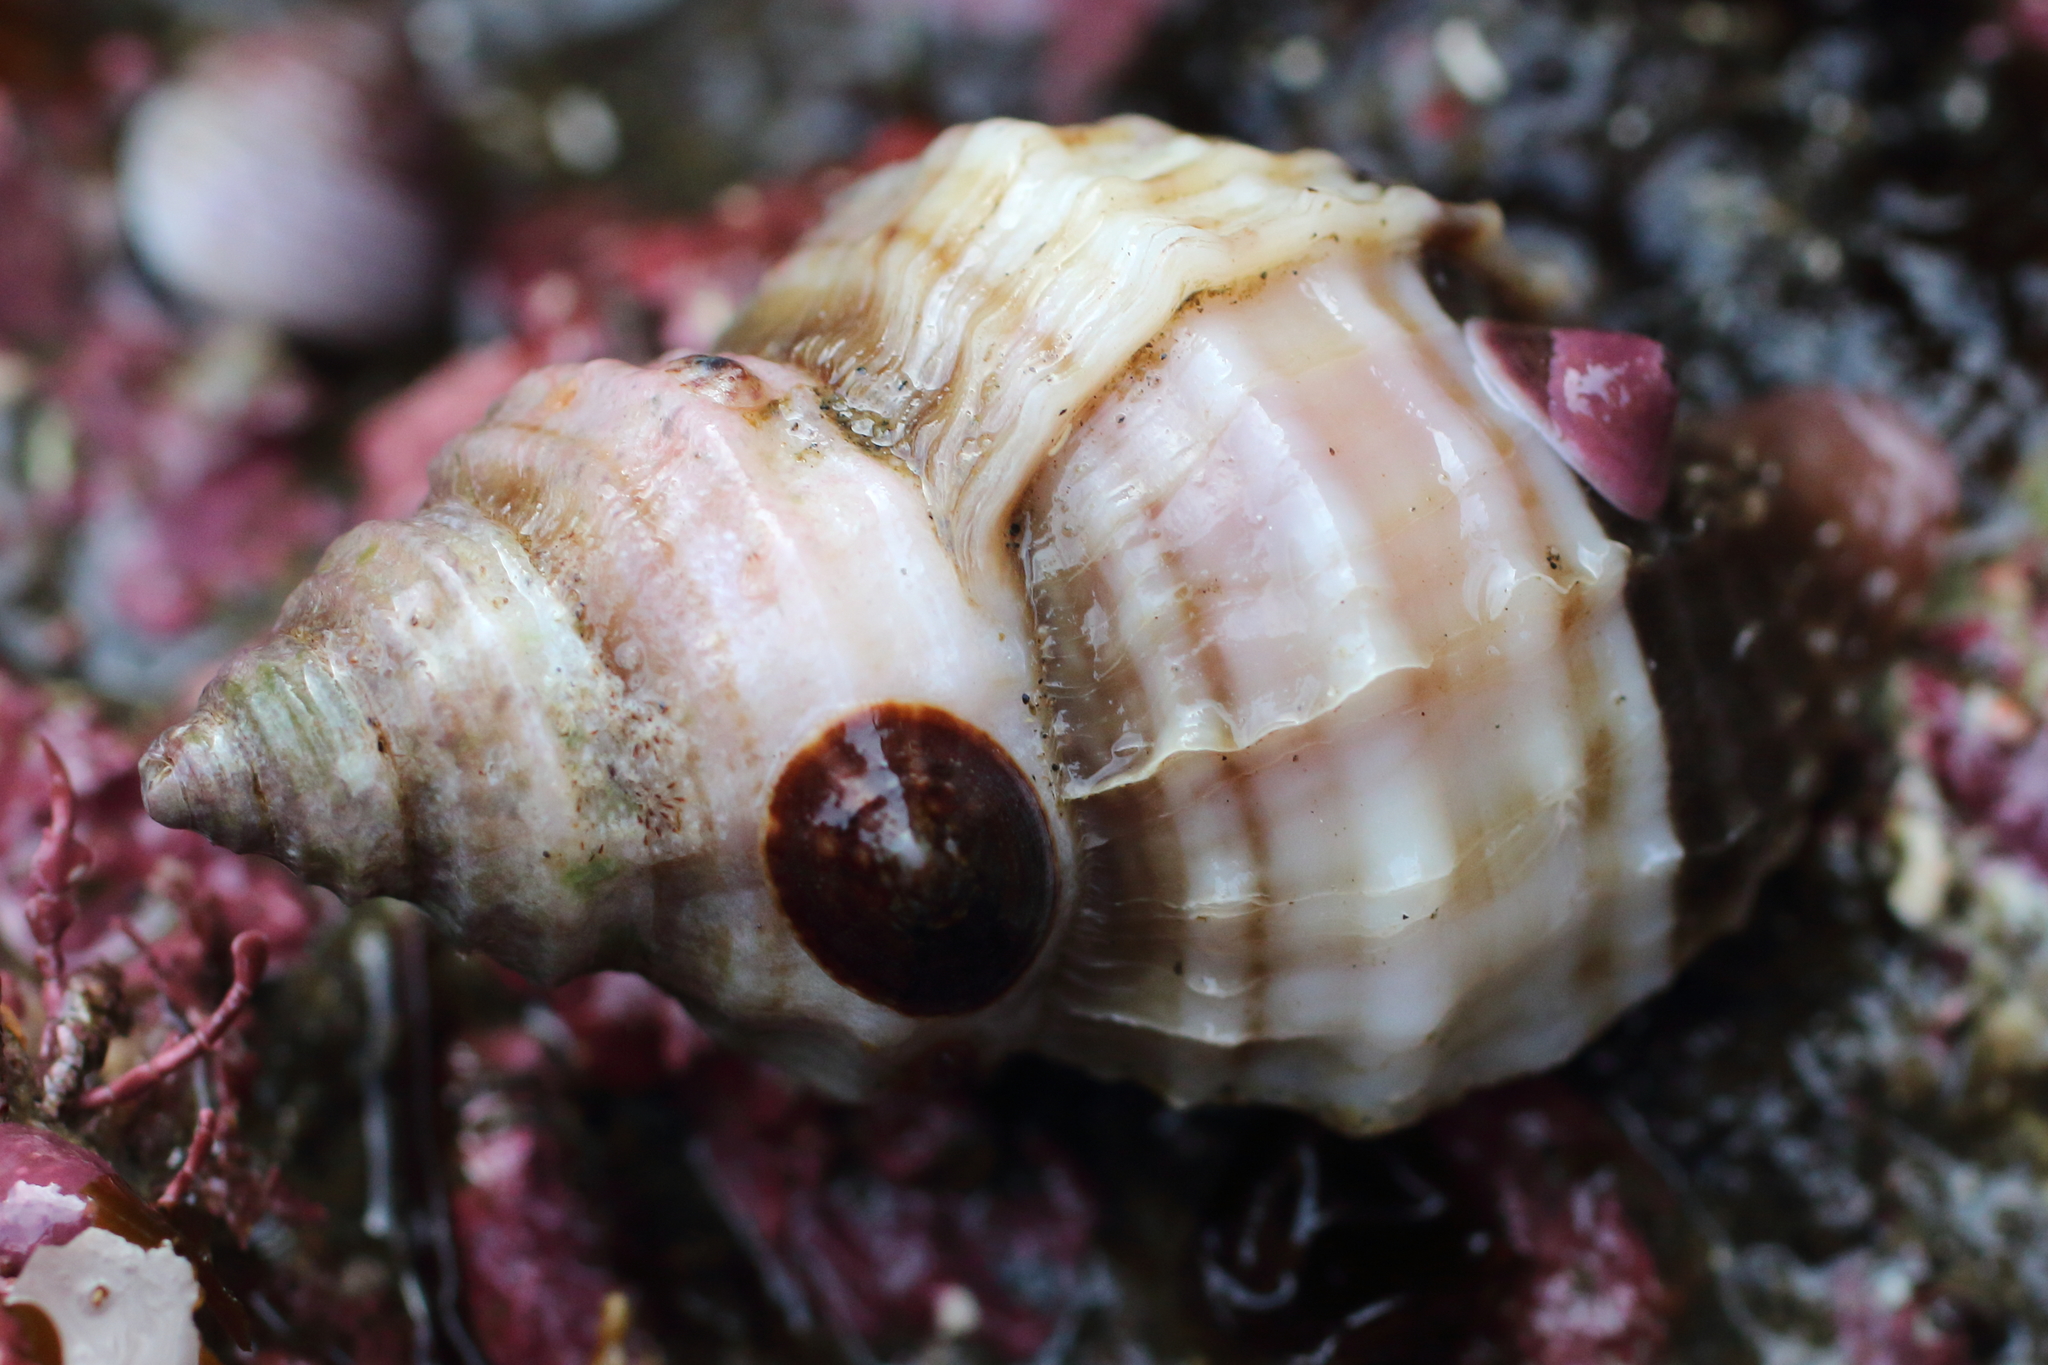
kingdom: Animalia
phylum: Mollusca
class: Gastropoda
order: Neogastropoda
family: Muricidae
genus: Nucella
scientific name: Nucella lamellosa
